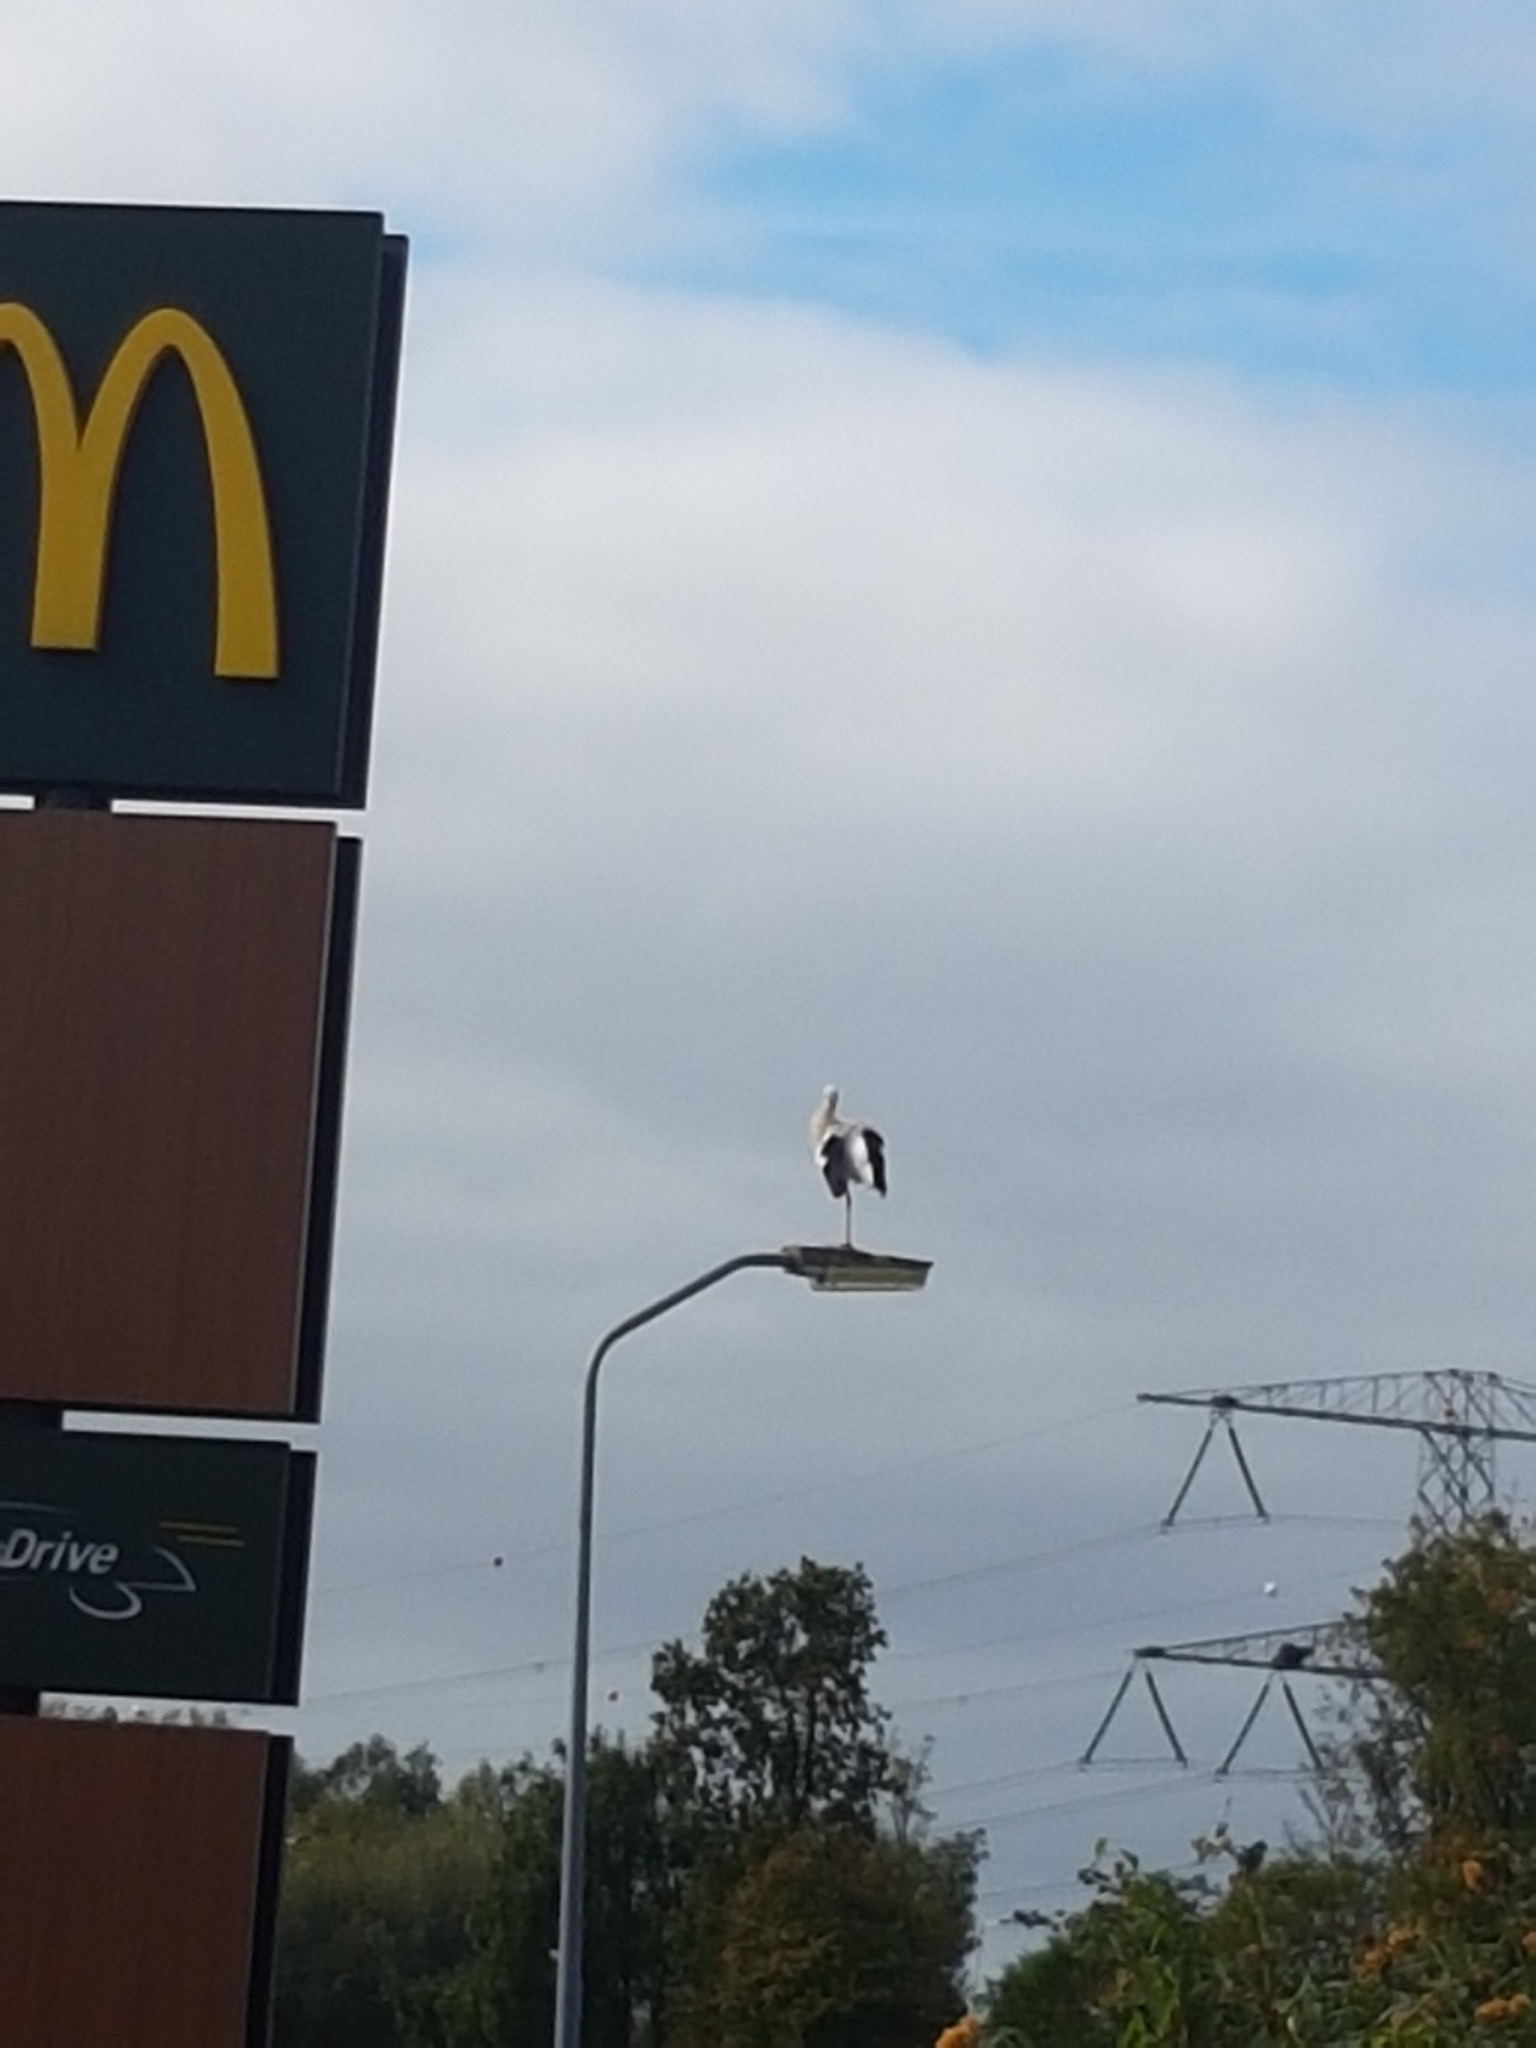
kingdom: Animalia
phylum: Chordata
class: Aves
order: Ciconiiformes
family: Ciconiidae
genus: Ciconia
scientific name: Ciconia ciconia
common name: White stork
